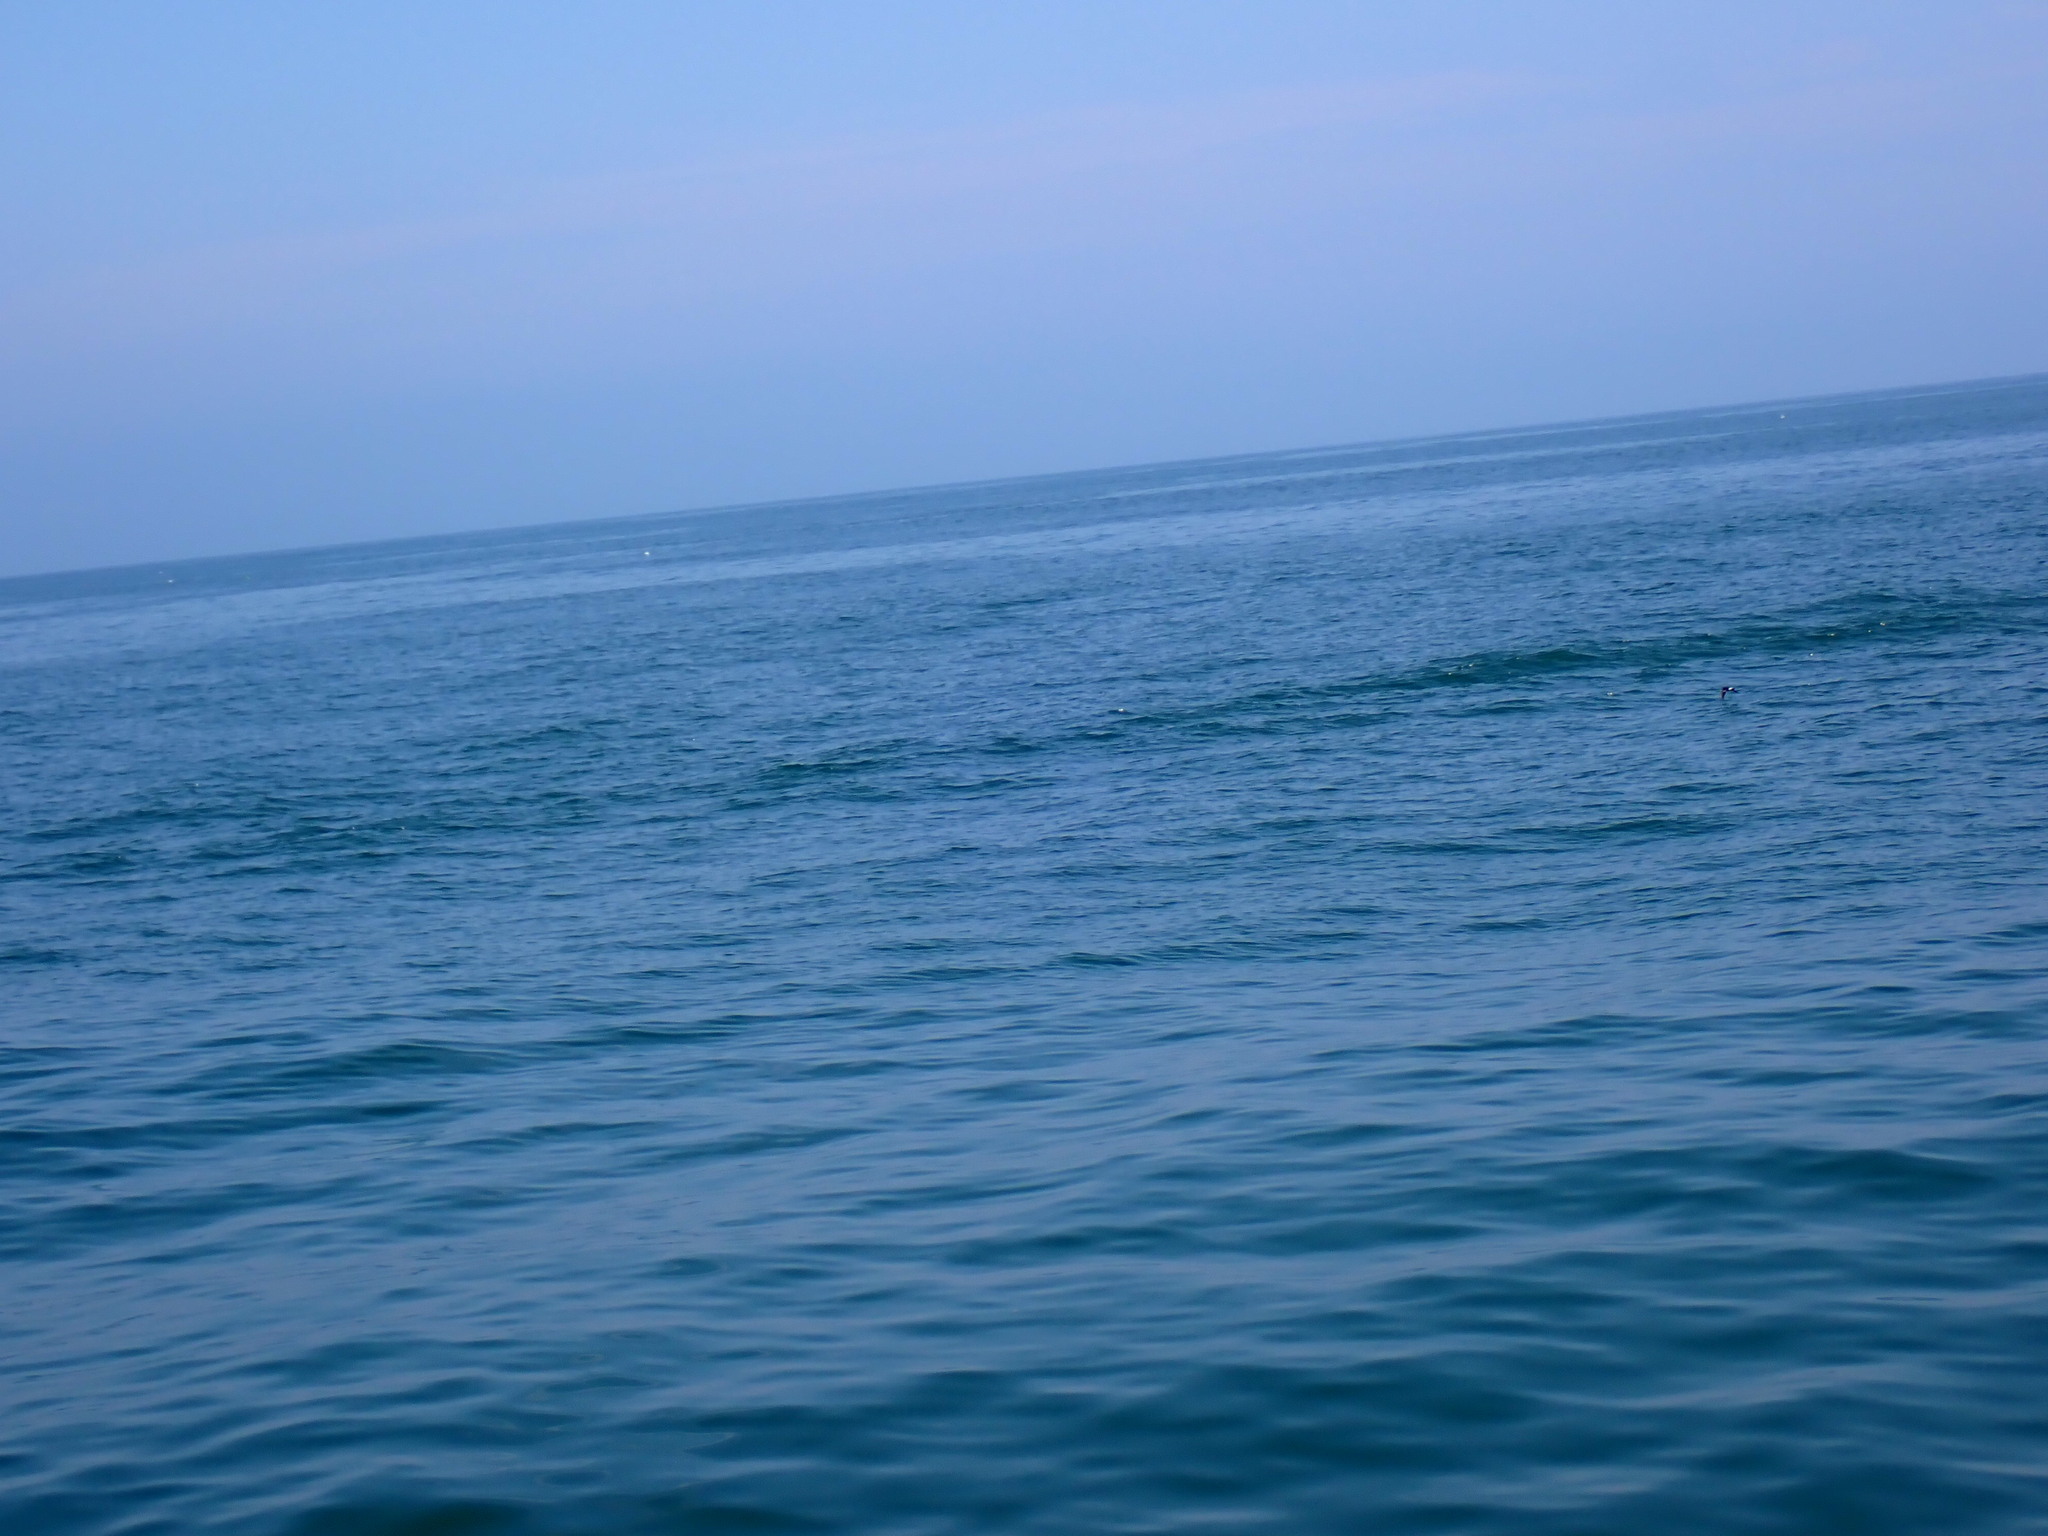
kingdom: Animalia
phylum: Chordata
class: Aves
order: Procellariiformes
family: Hydrobatidae
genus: Oceanites
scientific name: Oceanites oceanicus
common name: Wilson's storm petrel
